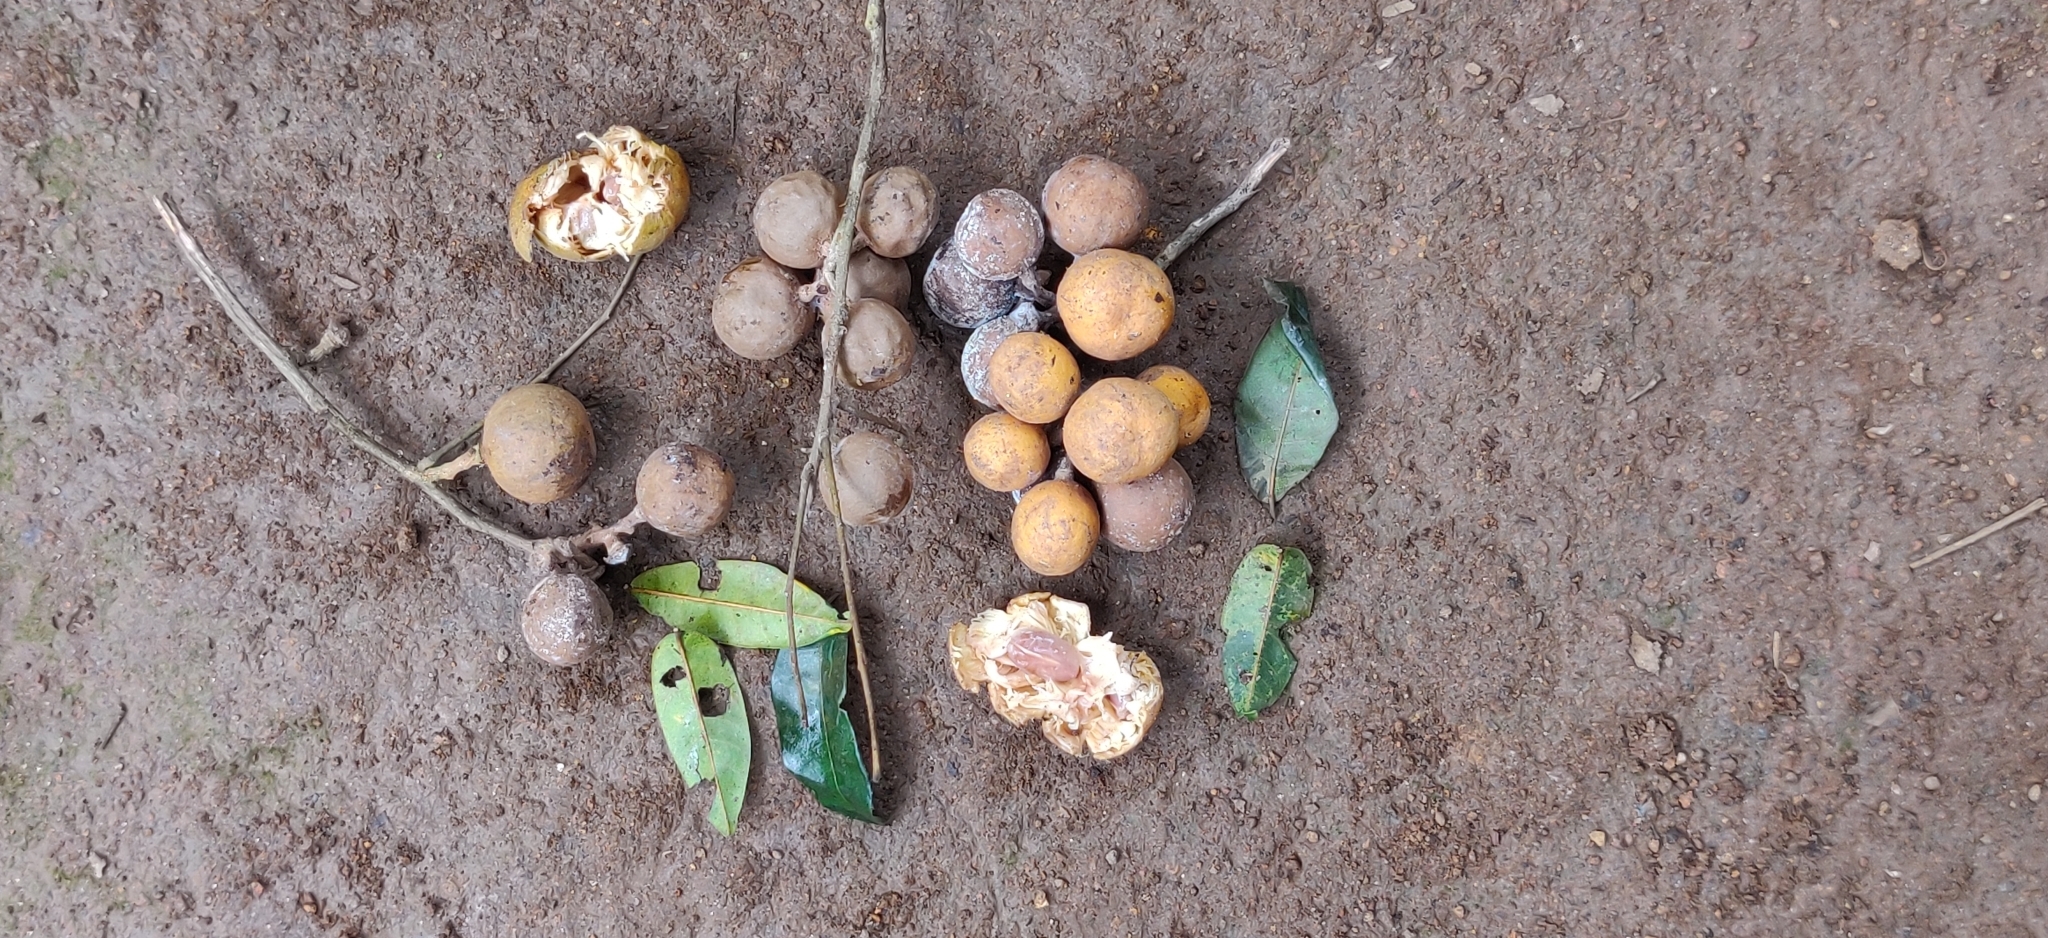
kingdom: Plantae
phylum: Tracheophyta
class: Magnoliopsida
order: Sapindales
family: Meliaceae
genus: Aglaia
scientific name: Aglaia elaeagnoidea
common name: Droopyleaf
